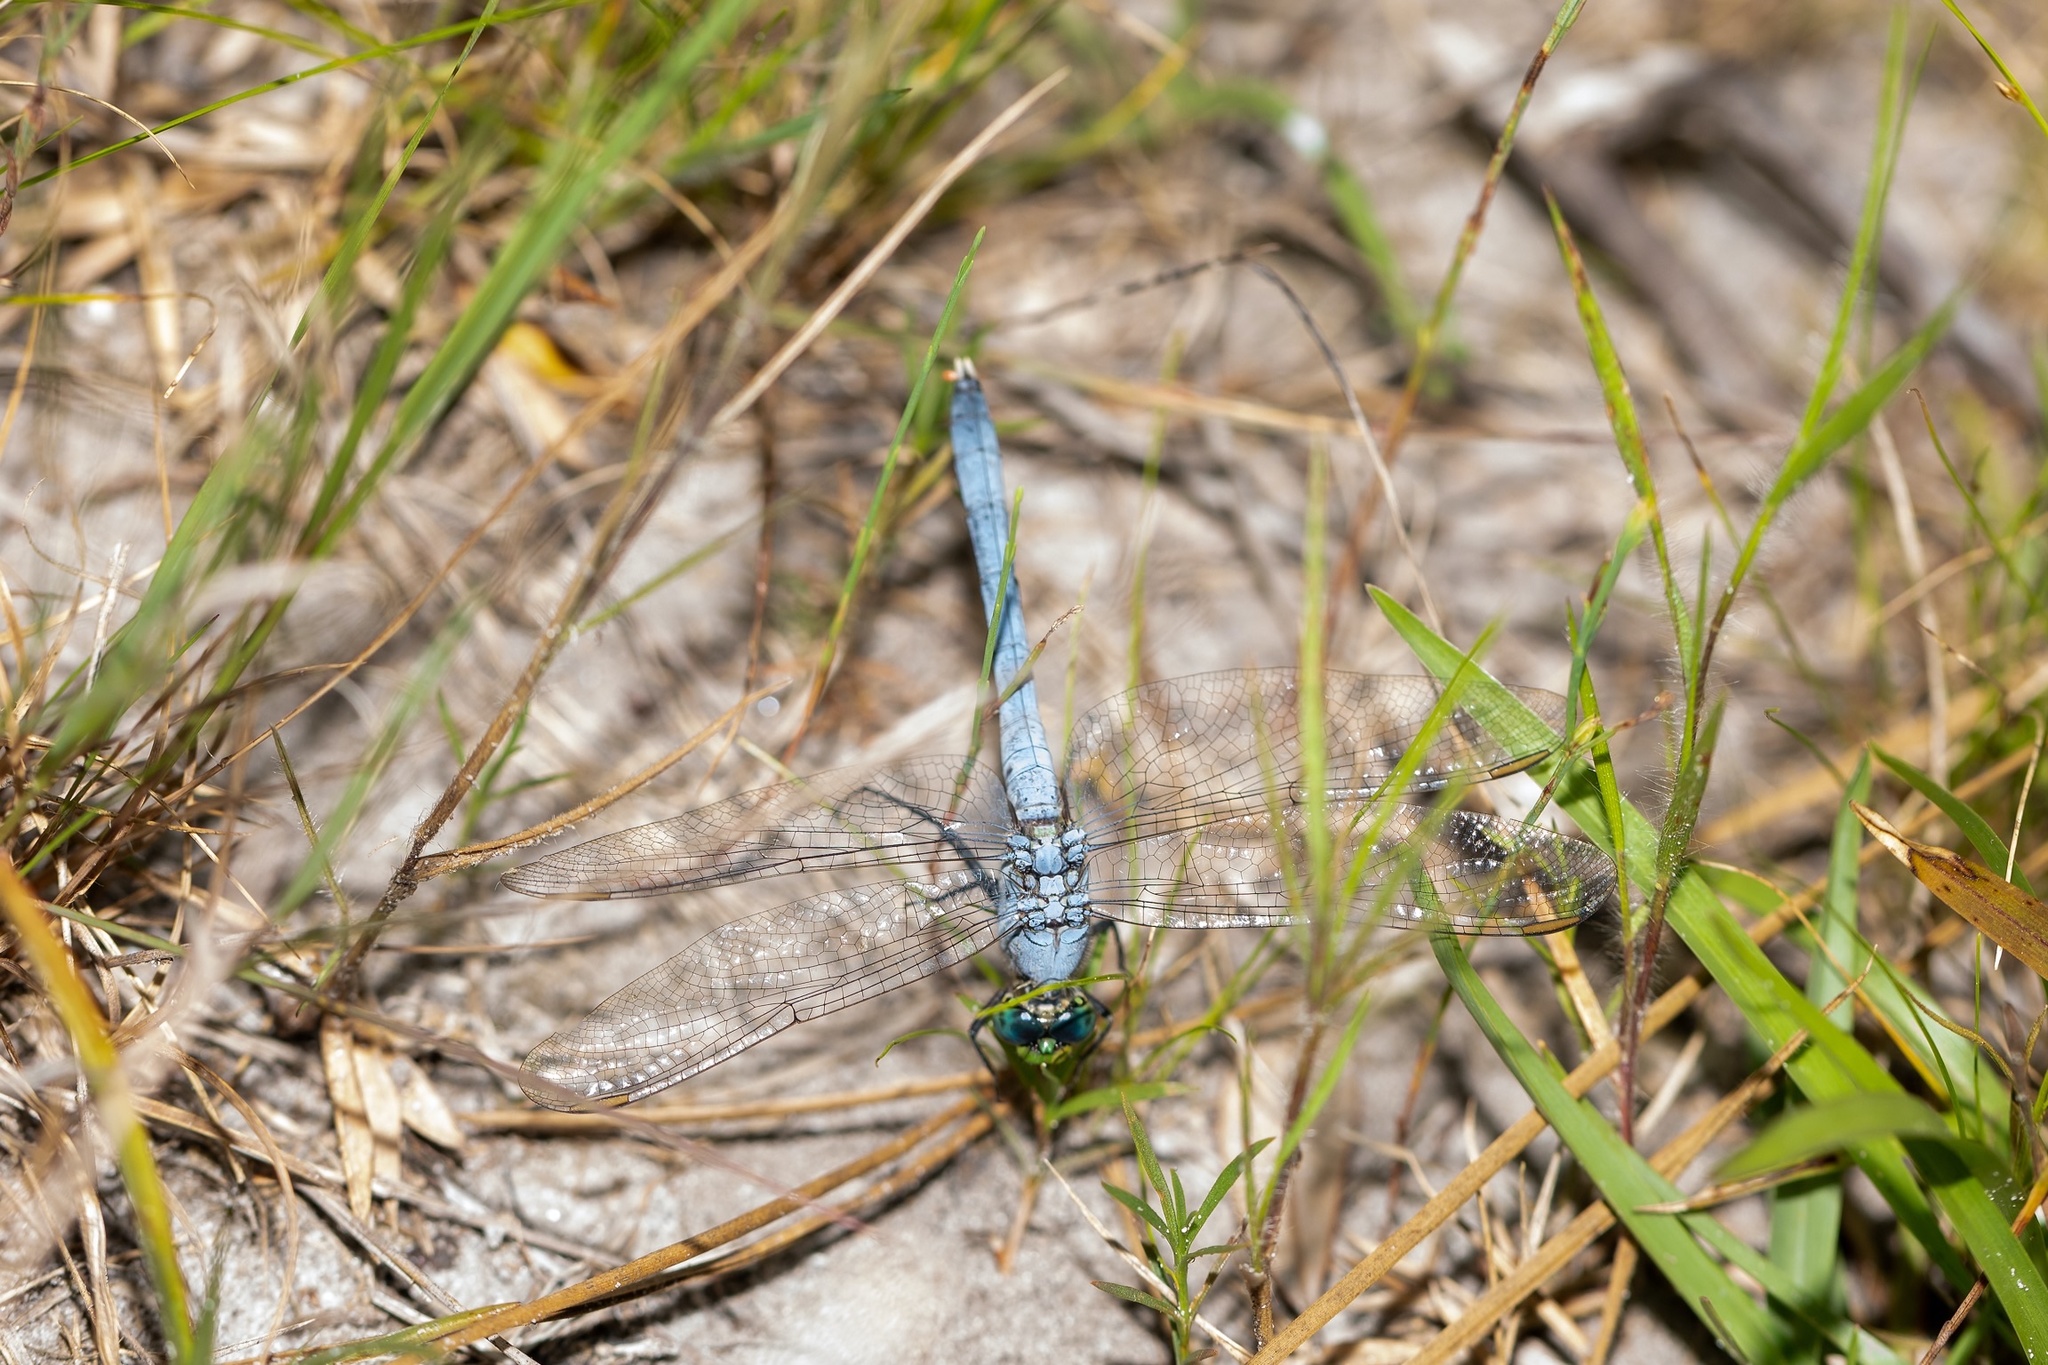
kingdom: Animalia
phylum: Arthropoda
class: Insecta
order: Odonata
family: Libellulidae
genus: Erythemis
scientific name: Erythemis simplicicollis
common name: Eastern pondhawk
